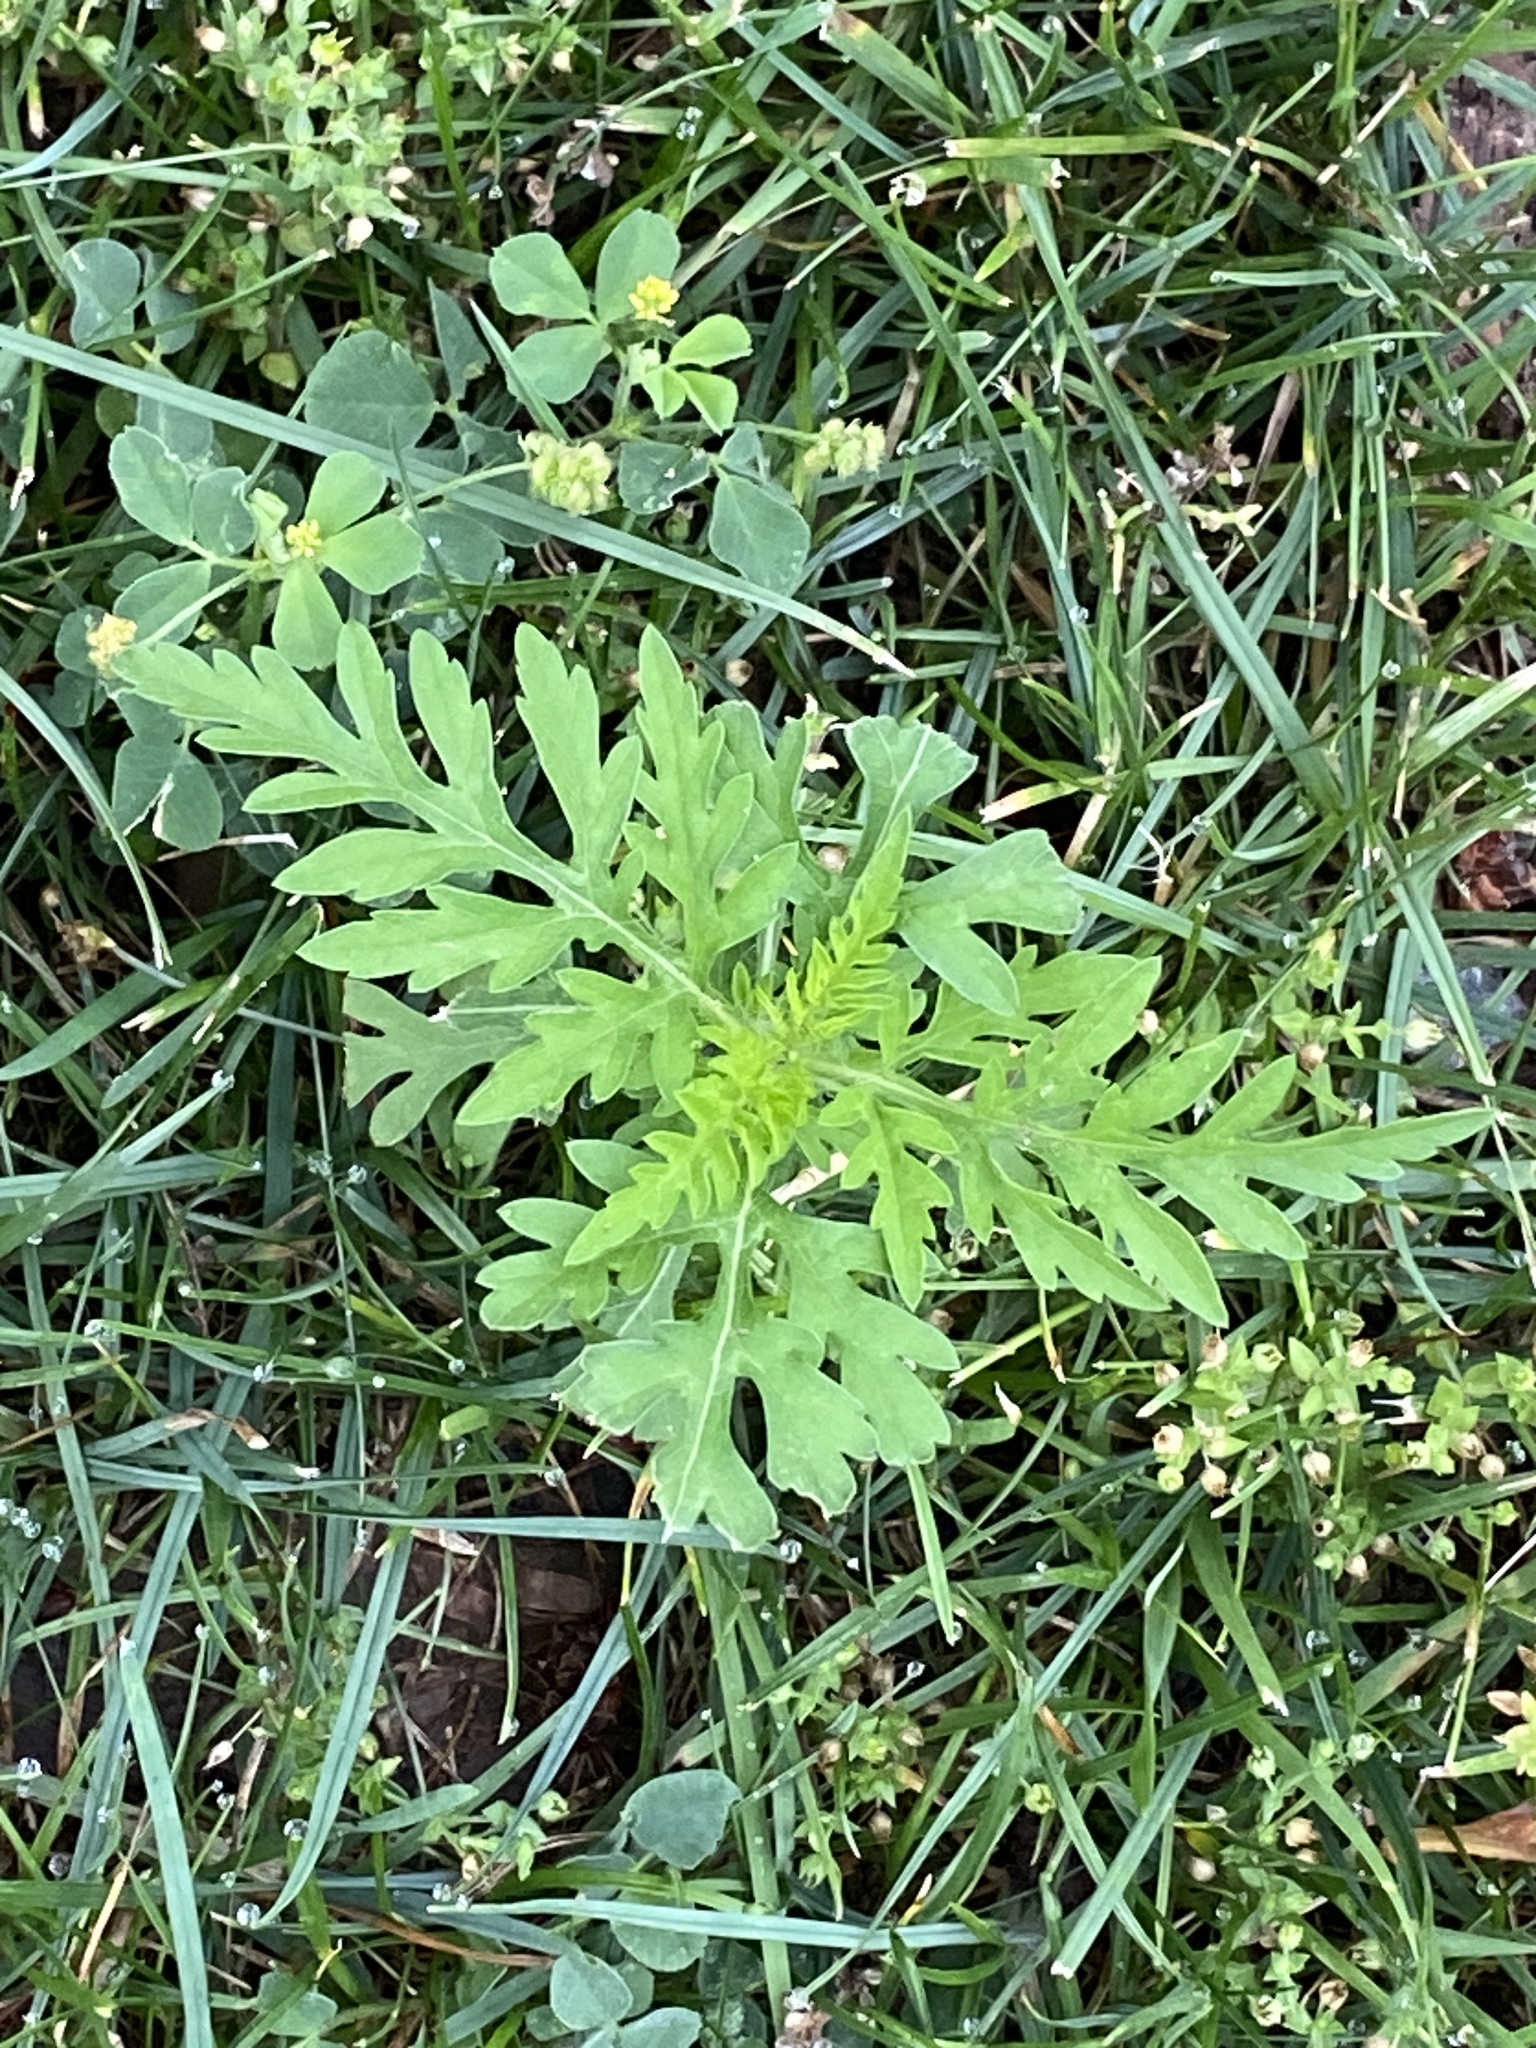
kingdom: Plantae
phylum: Tracheophyta
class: Magnoliopsida
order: Asterales
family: Asteraceae
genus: Ambrosia
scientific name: Ambrosia artemisiifolia
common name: Annual ragweed
